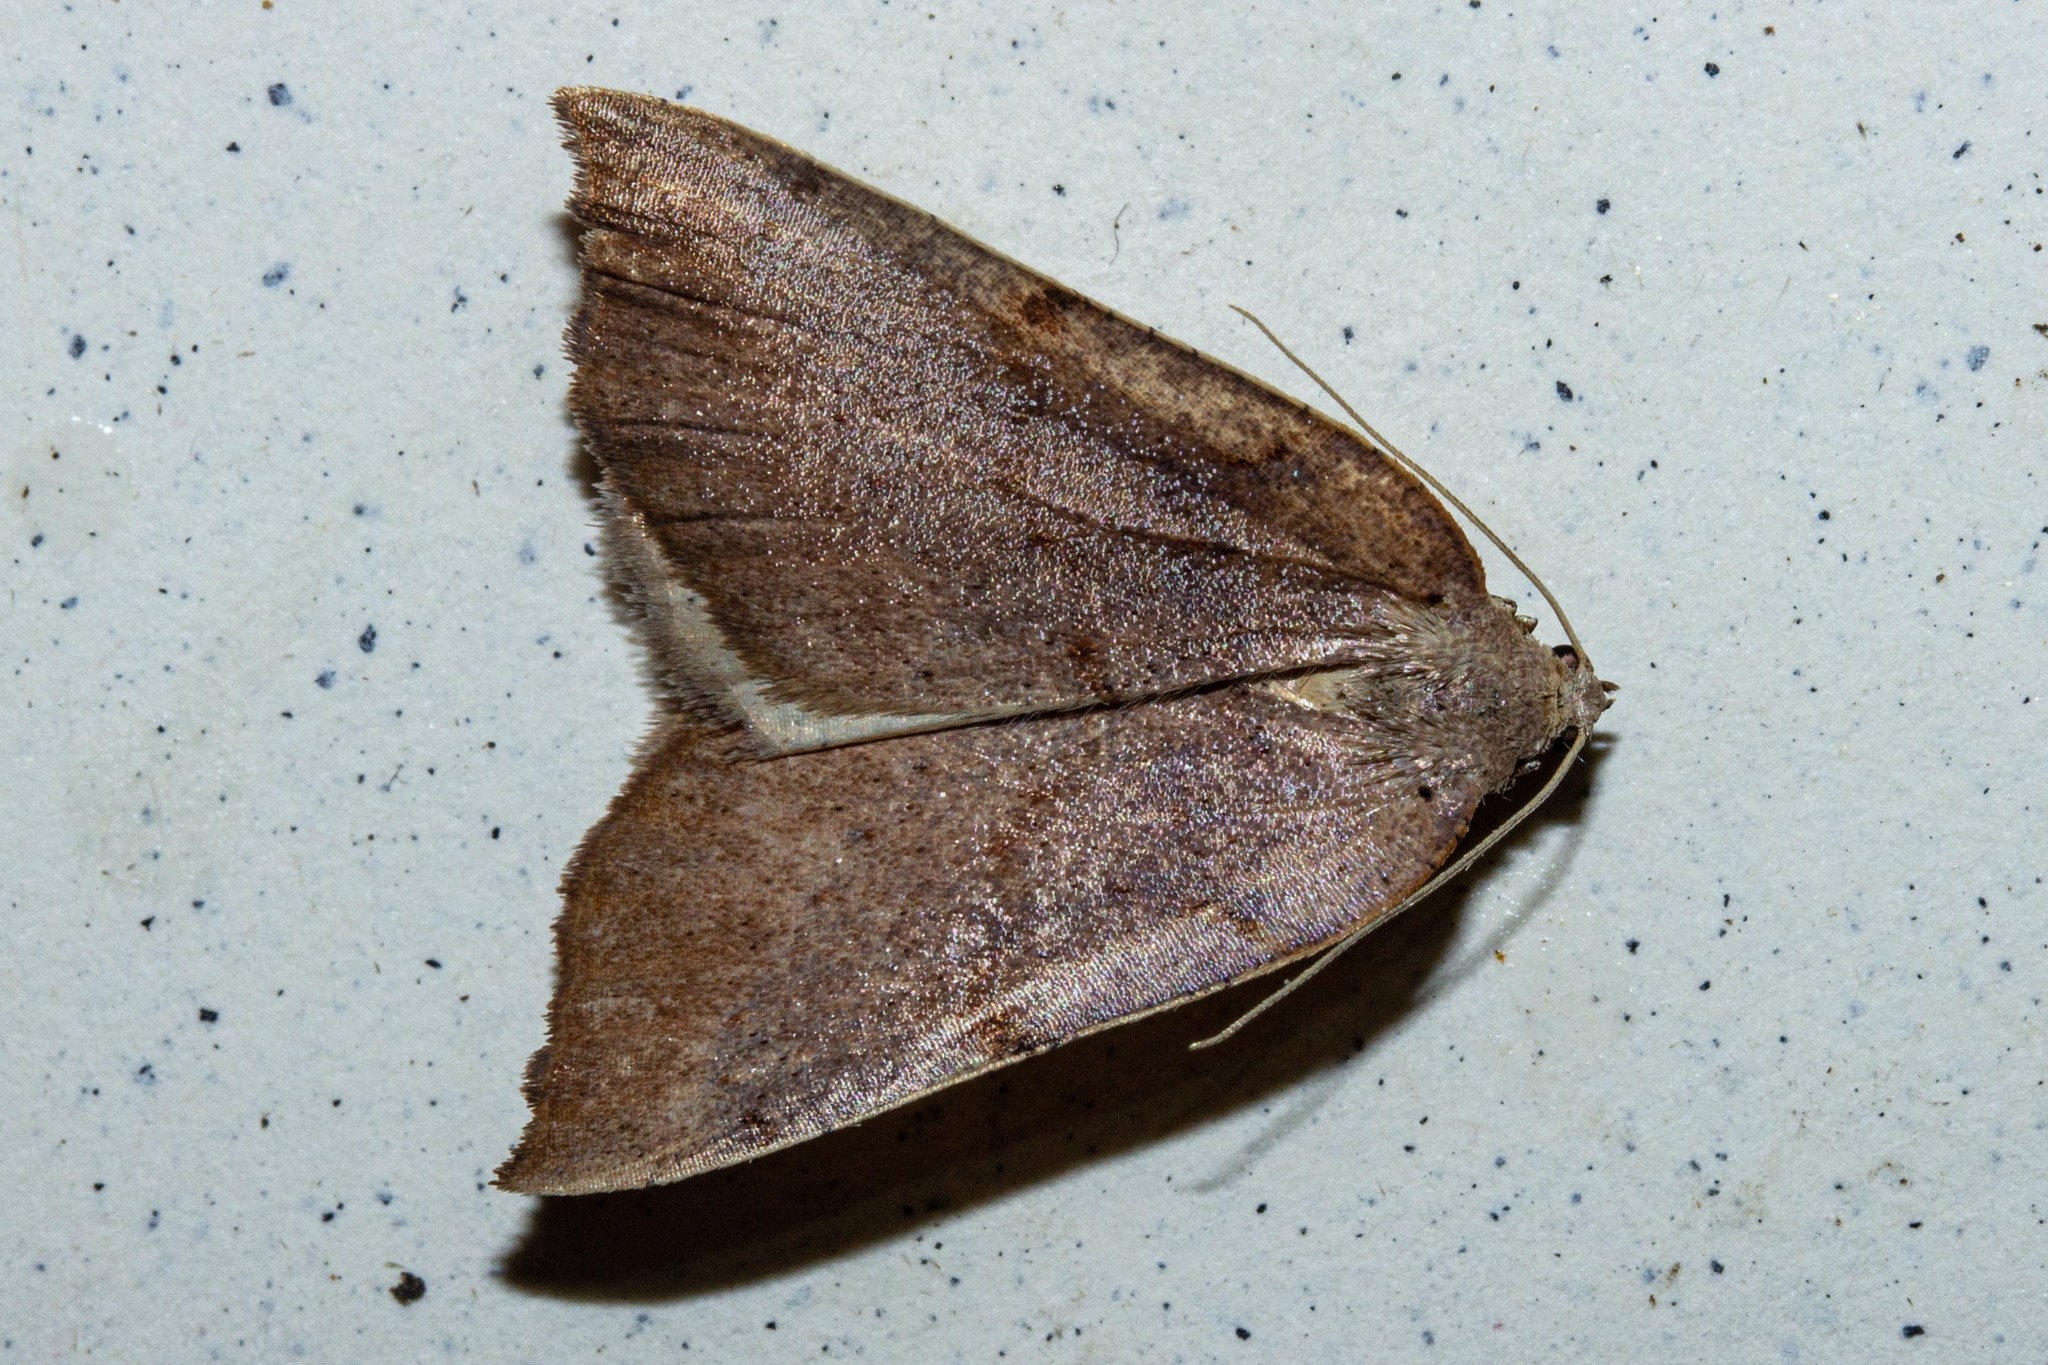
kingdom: Animalia
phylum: Arthropoda
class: Insecta
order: Lepidoptera
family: Geometridae
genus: Sestra
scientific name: Sestra humeraria
